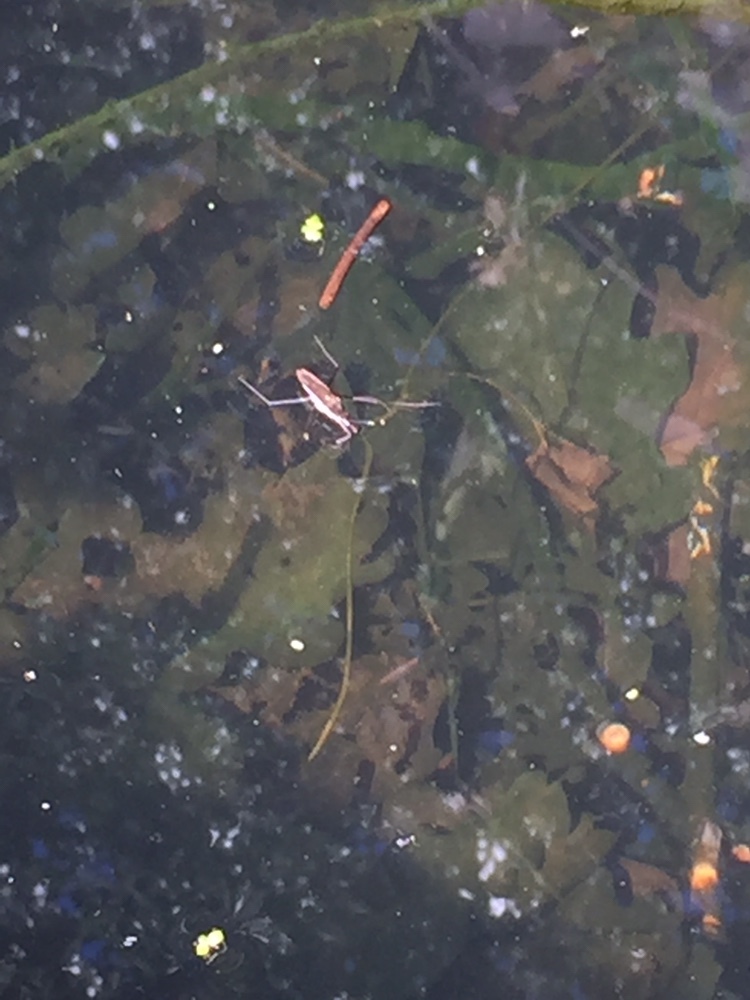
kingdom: Animalia
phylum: Arthropoda
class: Insecta
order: Hemiptera
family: Gerridae
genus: Gerris
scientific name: Gerris
